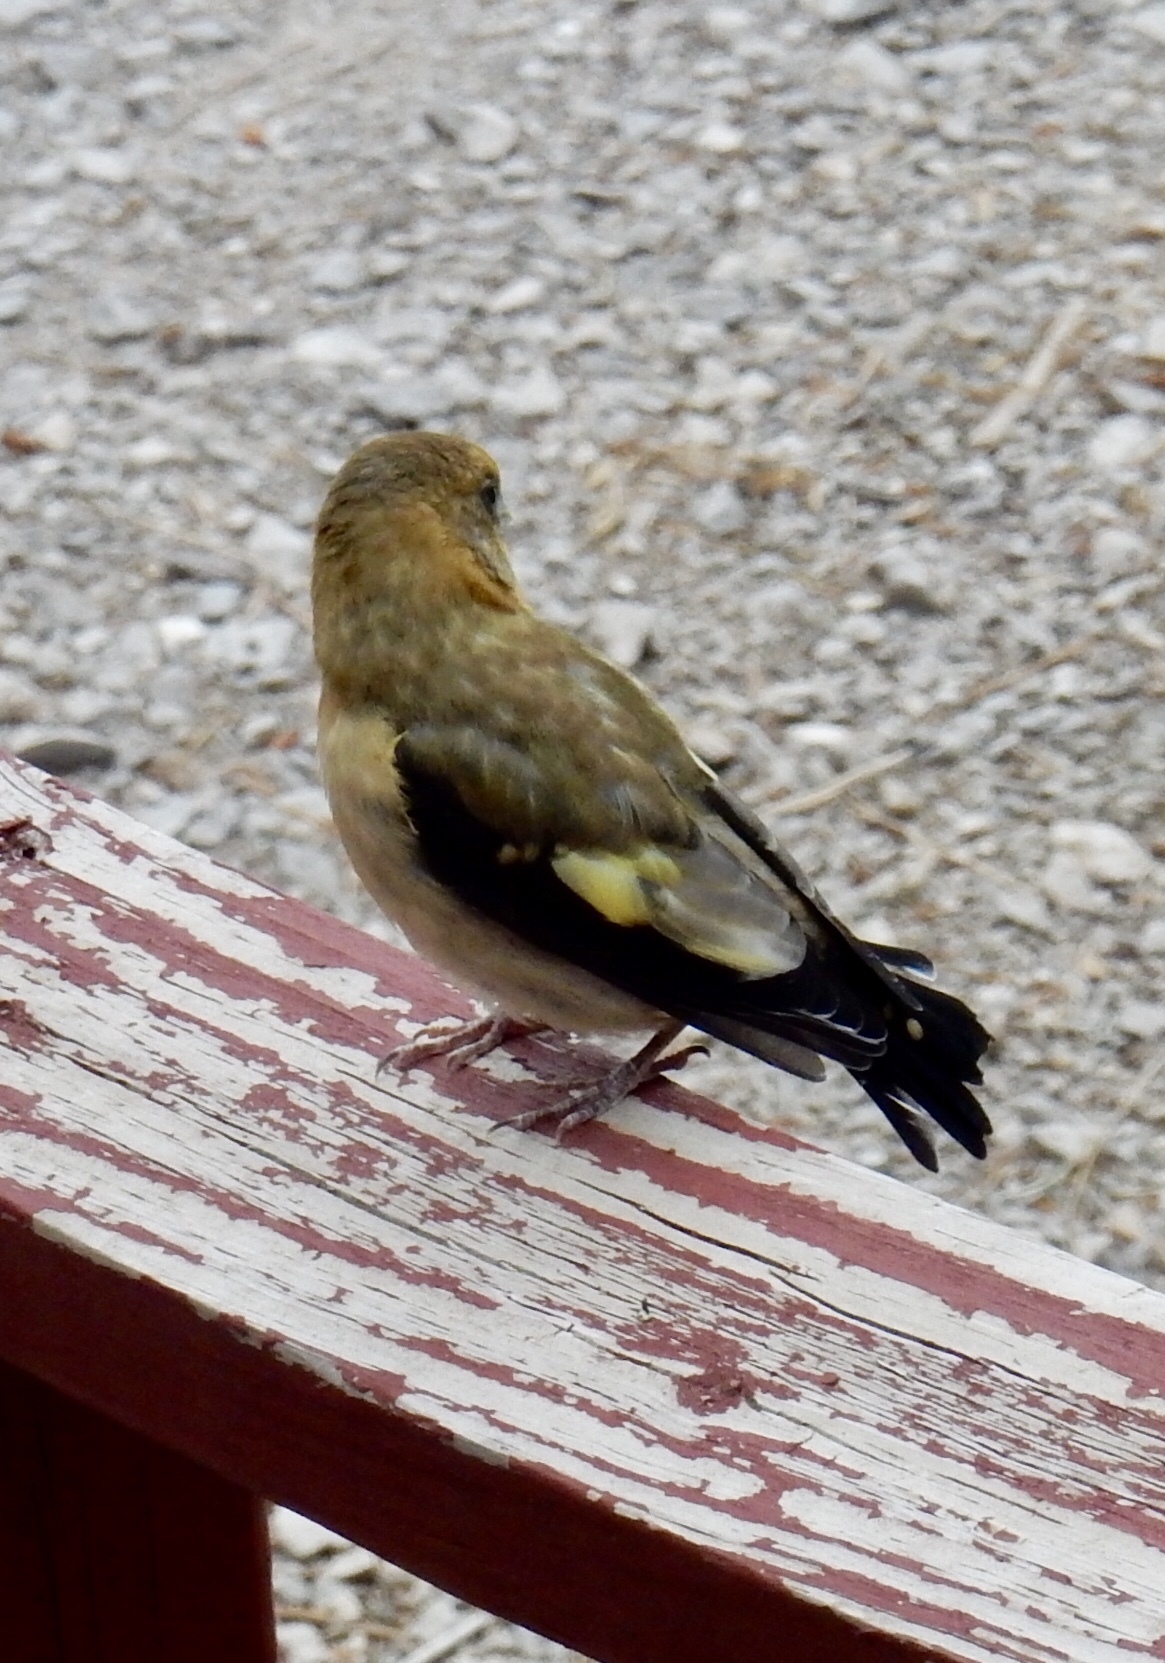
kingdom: Animalia
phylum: Chordata
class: Aves
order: Passeriformes
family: Fringillidae
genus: Hesperiphona
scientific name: Hesperiphona vespertina
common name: Evening grosbeak
